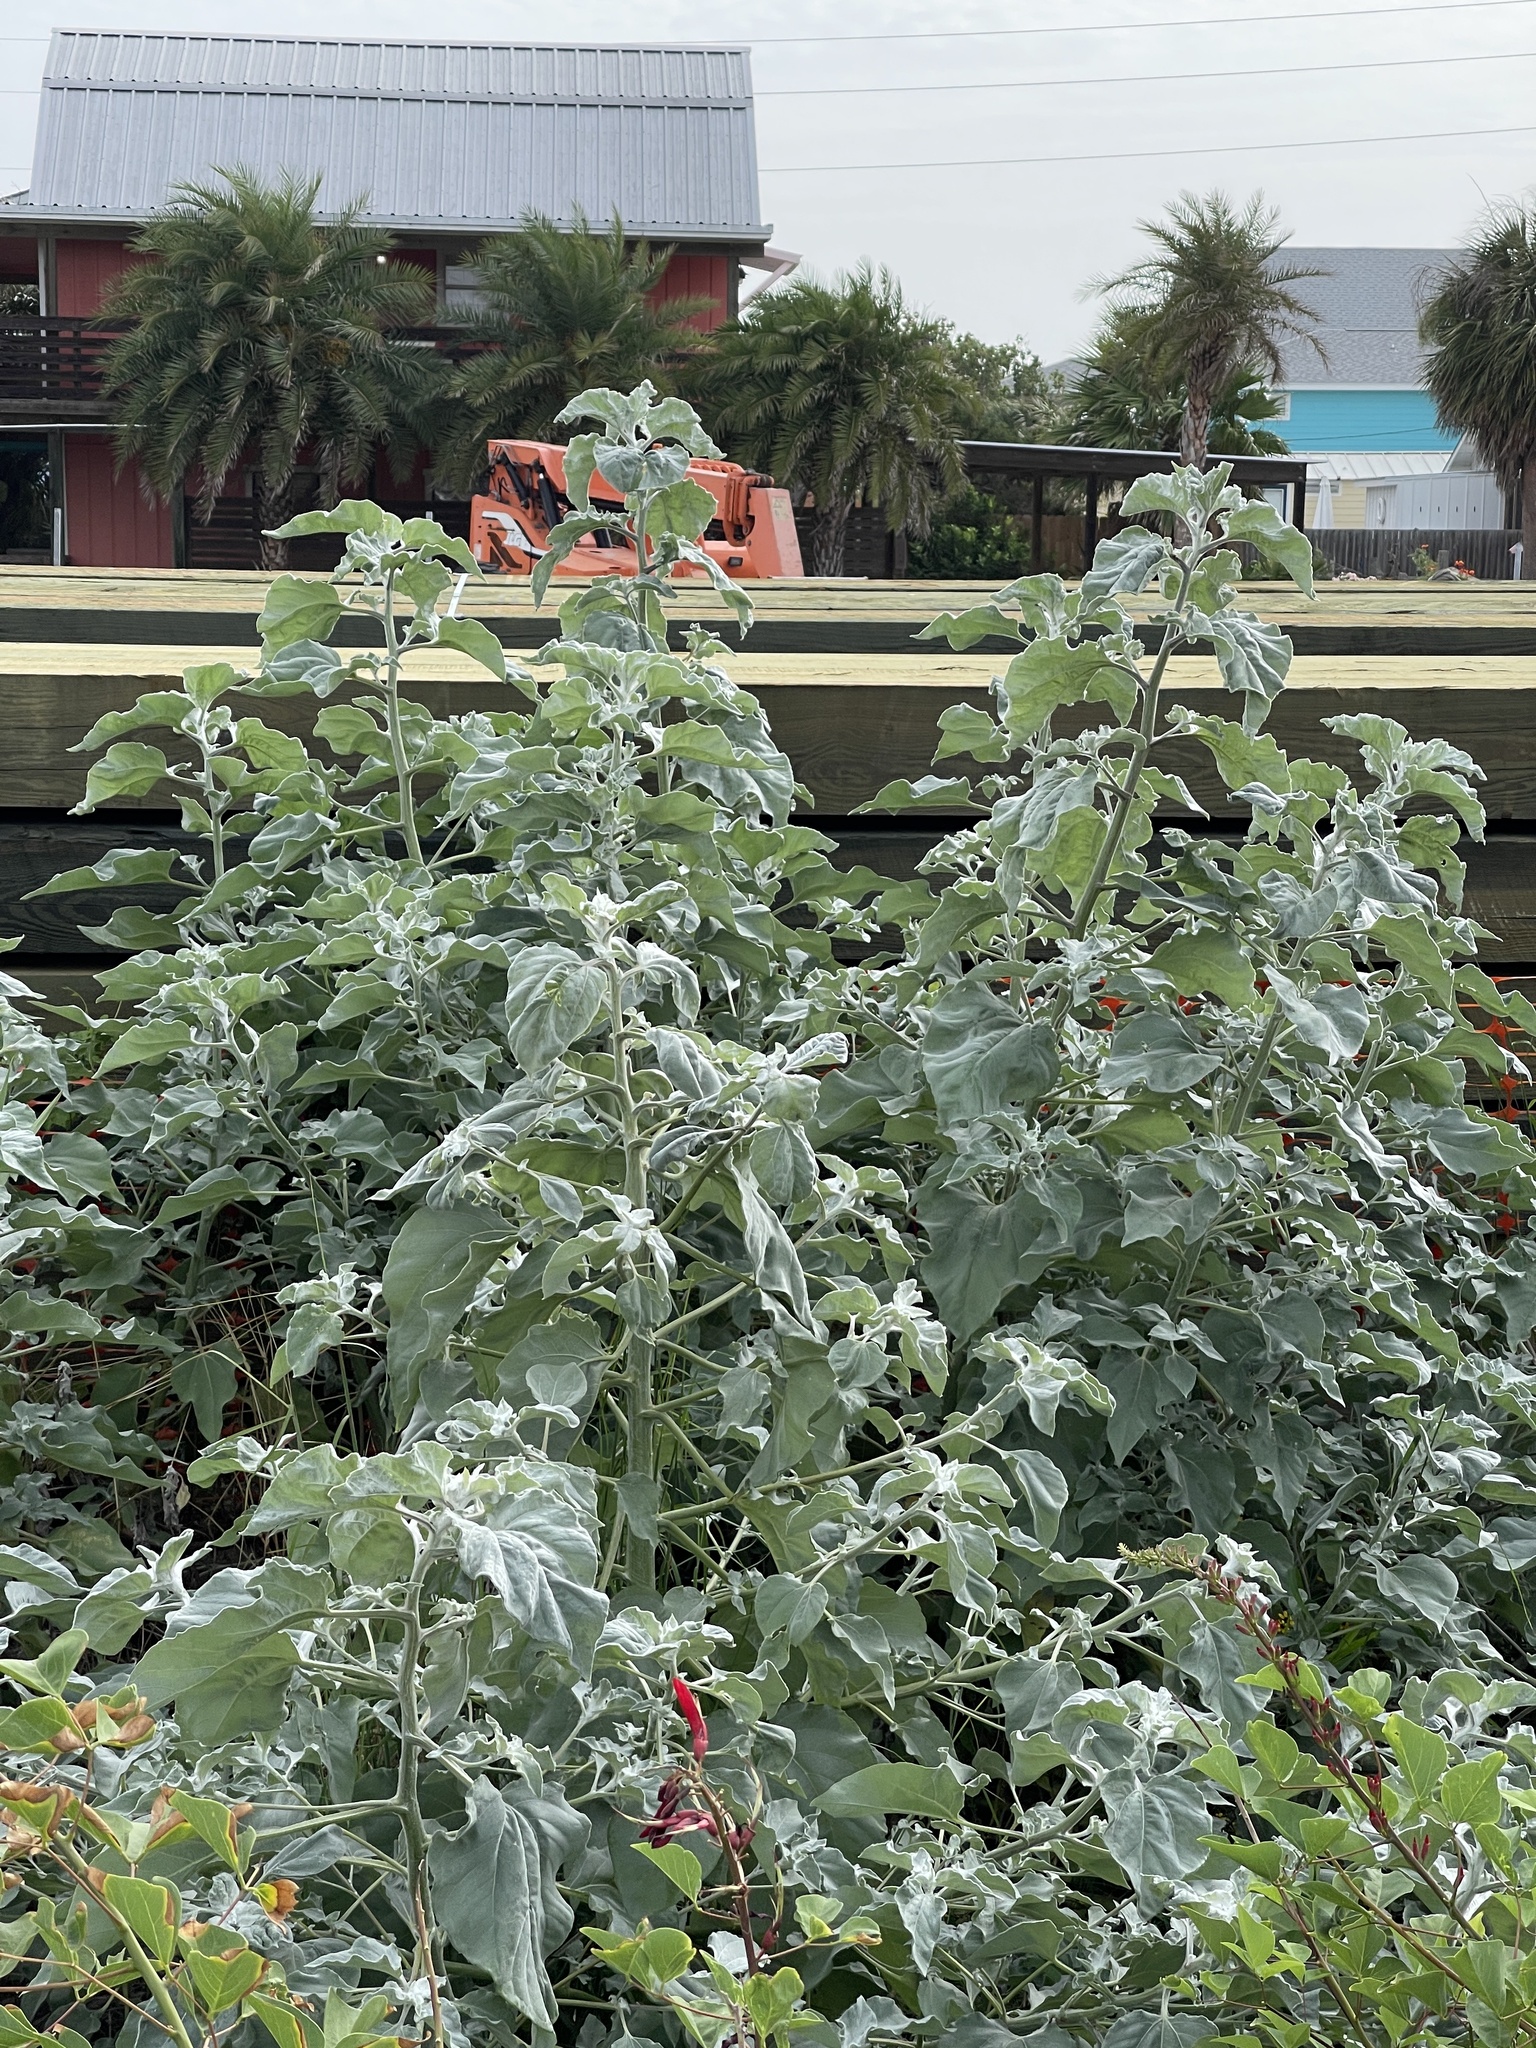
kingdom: Plantae
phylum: Tracheophyta
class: Magnoliopsida
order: Asterales
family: Asteraceae
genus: Helianthus
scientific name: Helianthus argophyllus
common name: Silverleaf sunflower
